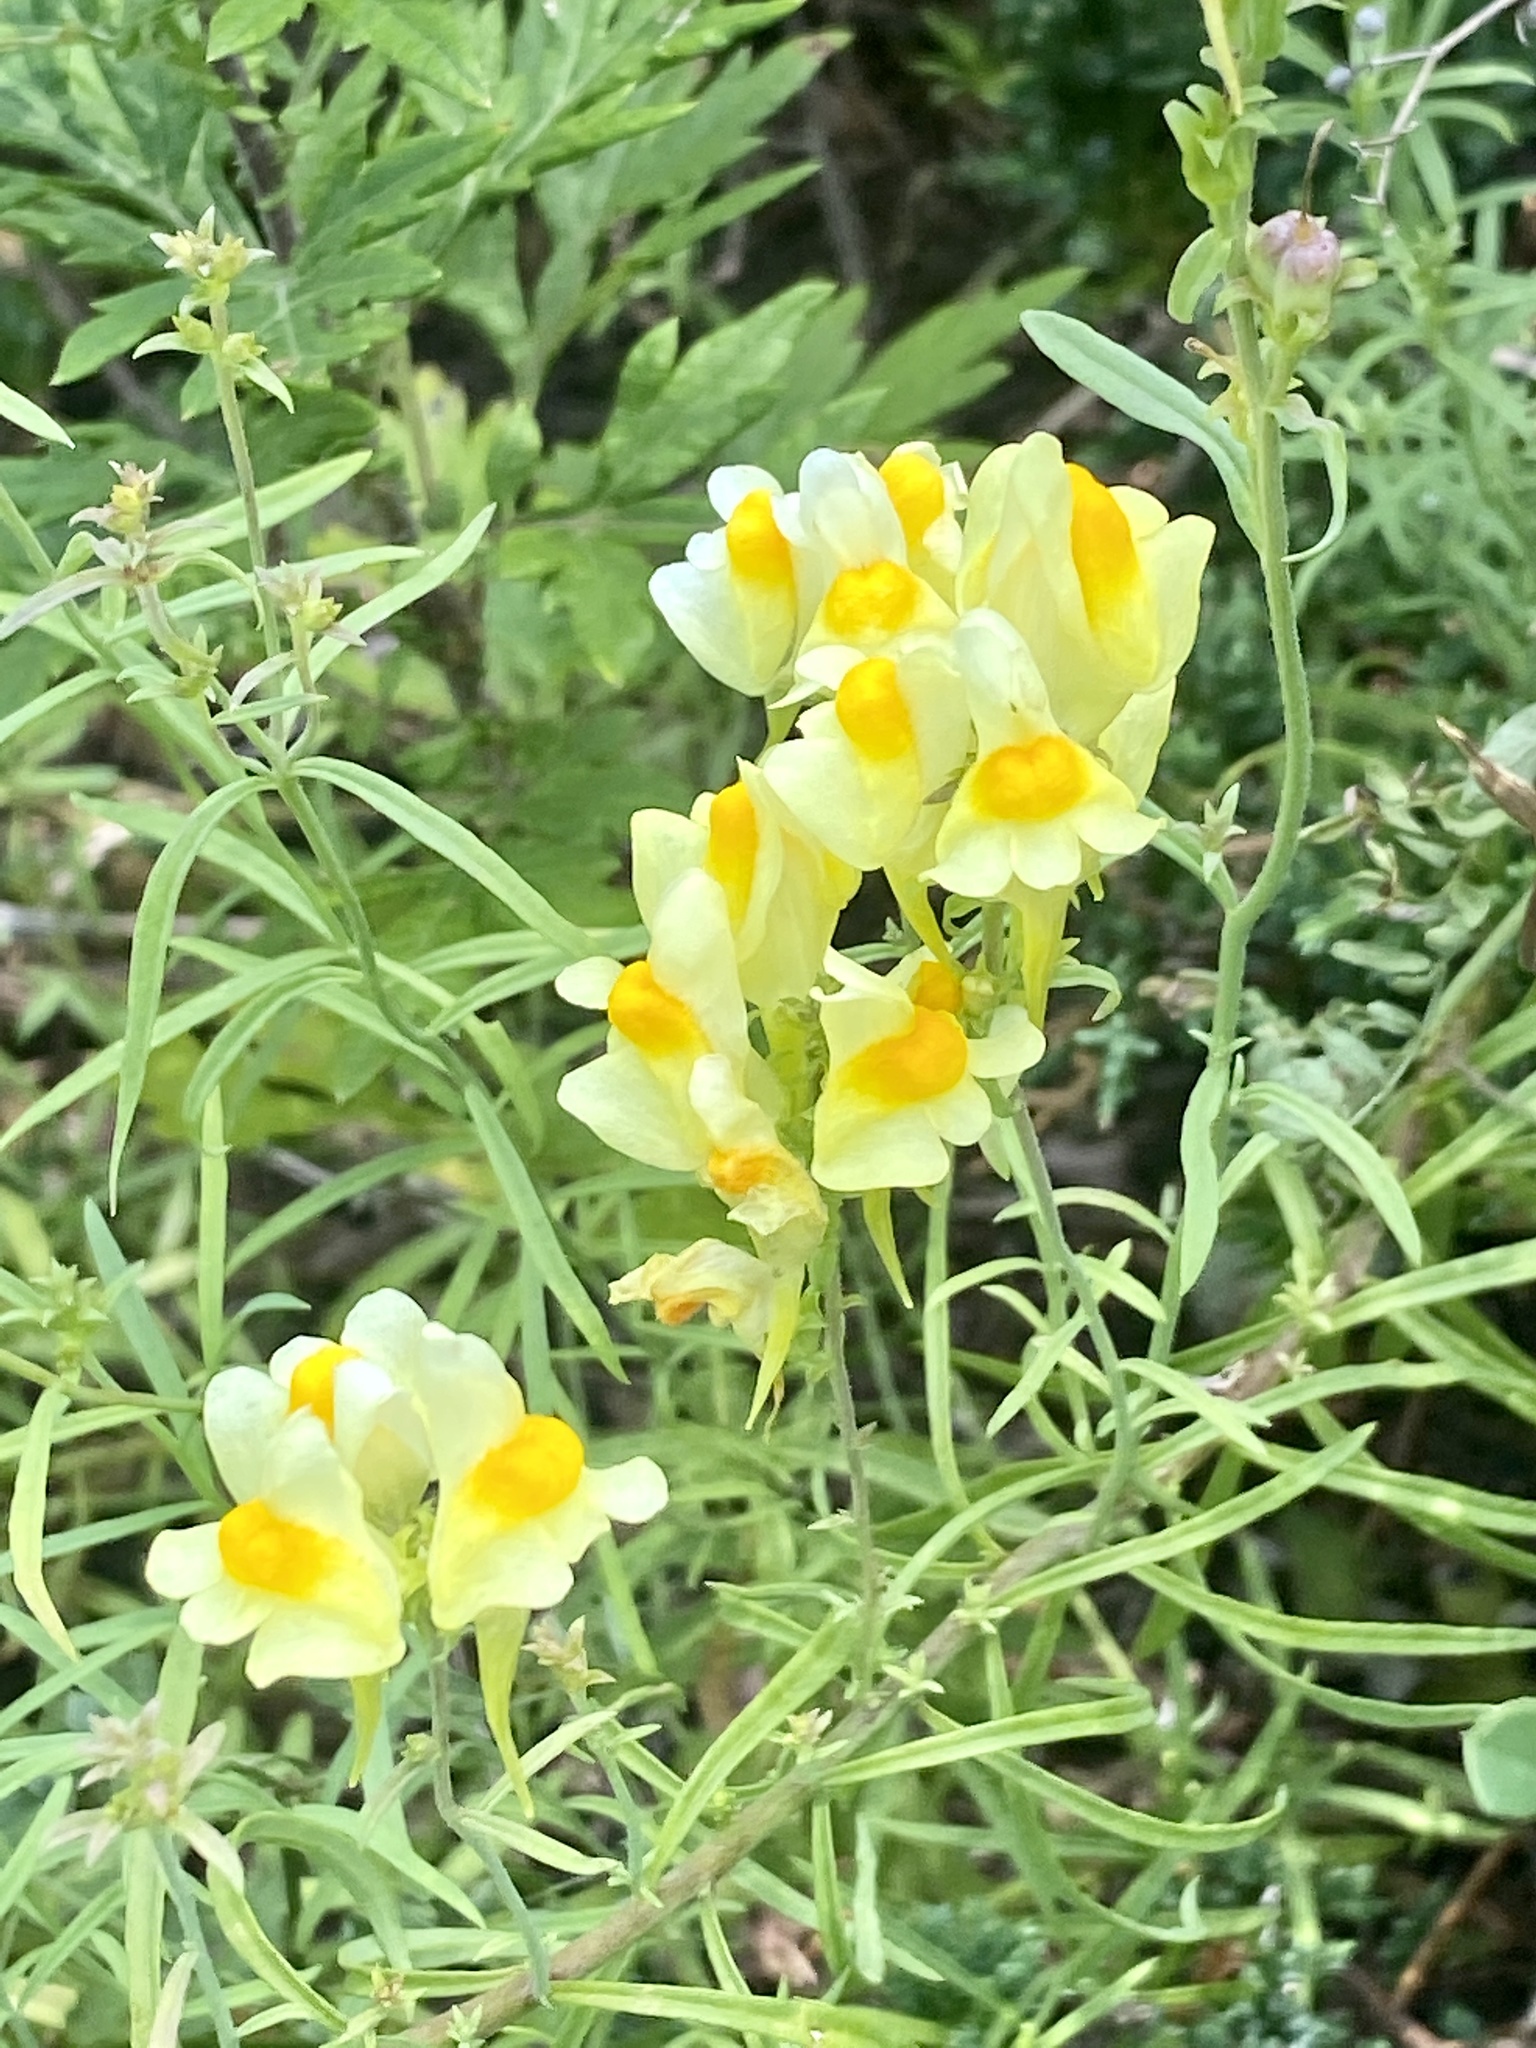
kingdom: Plantae
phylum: Tracheophyta
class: Magnoliopsida
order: Lamiales
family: Plantaginaceae
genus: Linaria
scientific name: Linaria vulgaris
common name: Butter and eggs
